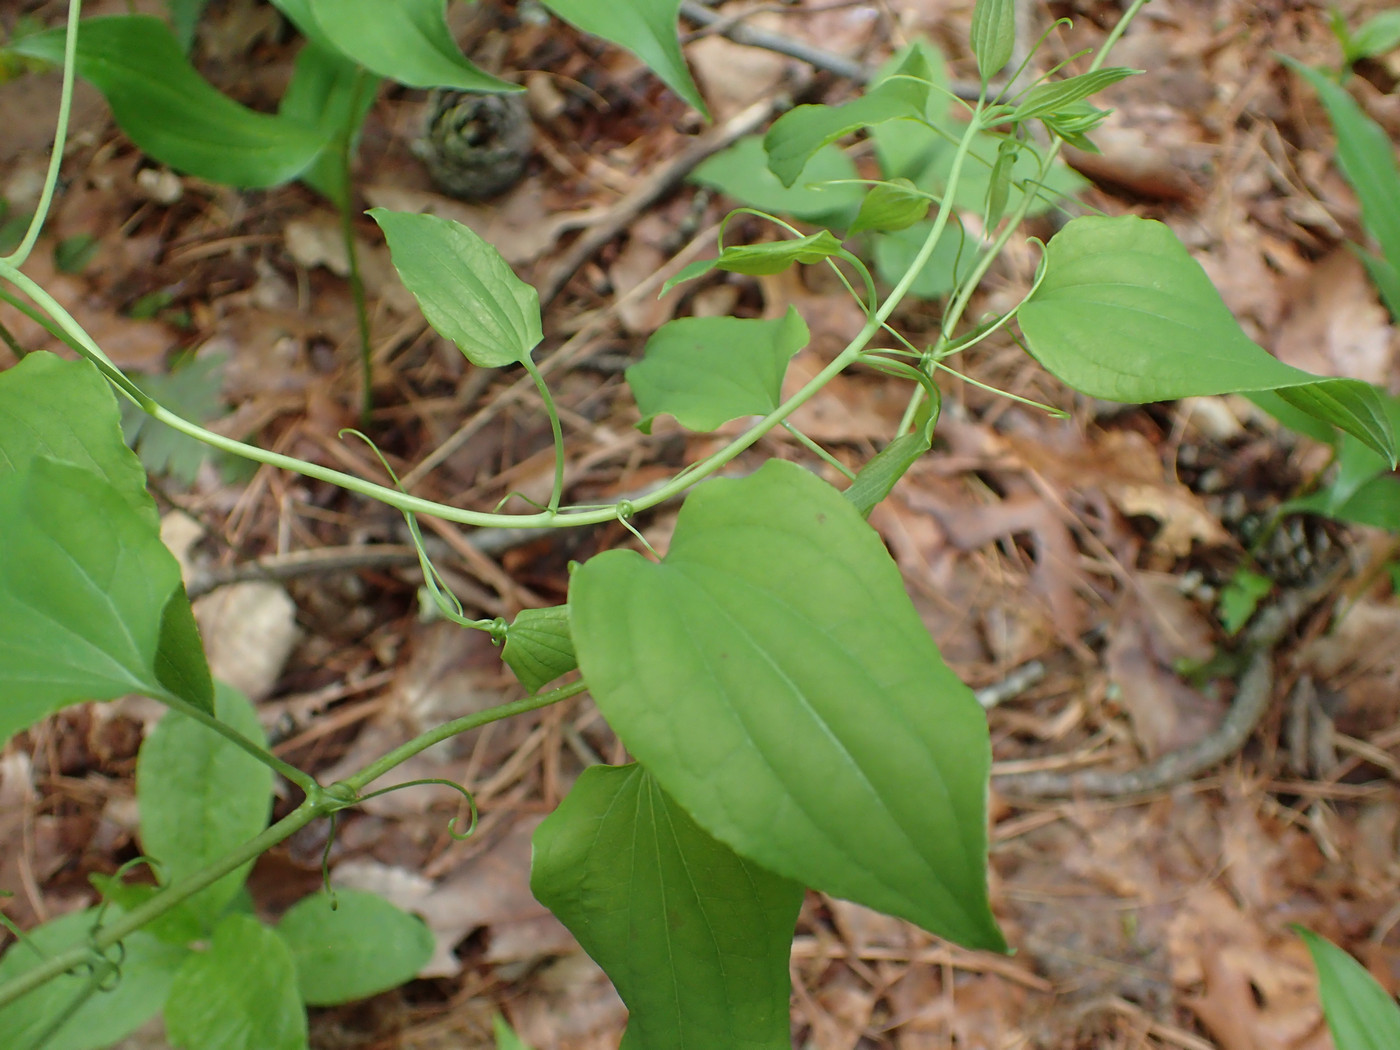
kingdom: Plantae
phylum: Tracheophyta
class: Liliopsida
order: Liliales
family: Smilacaceae
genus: Smilax
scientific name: Smilax herbacea
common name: Jacob's-ladder
